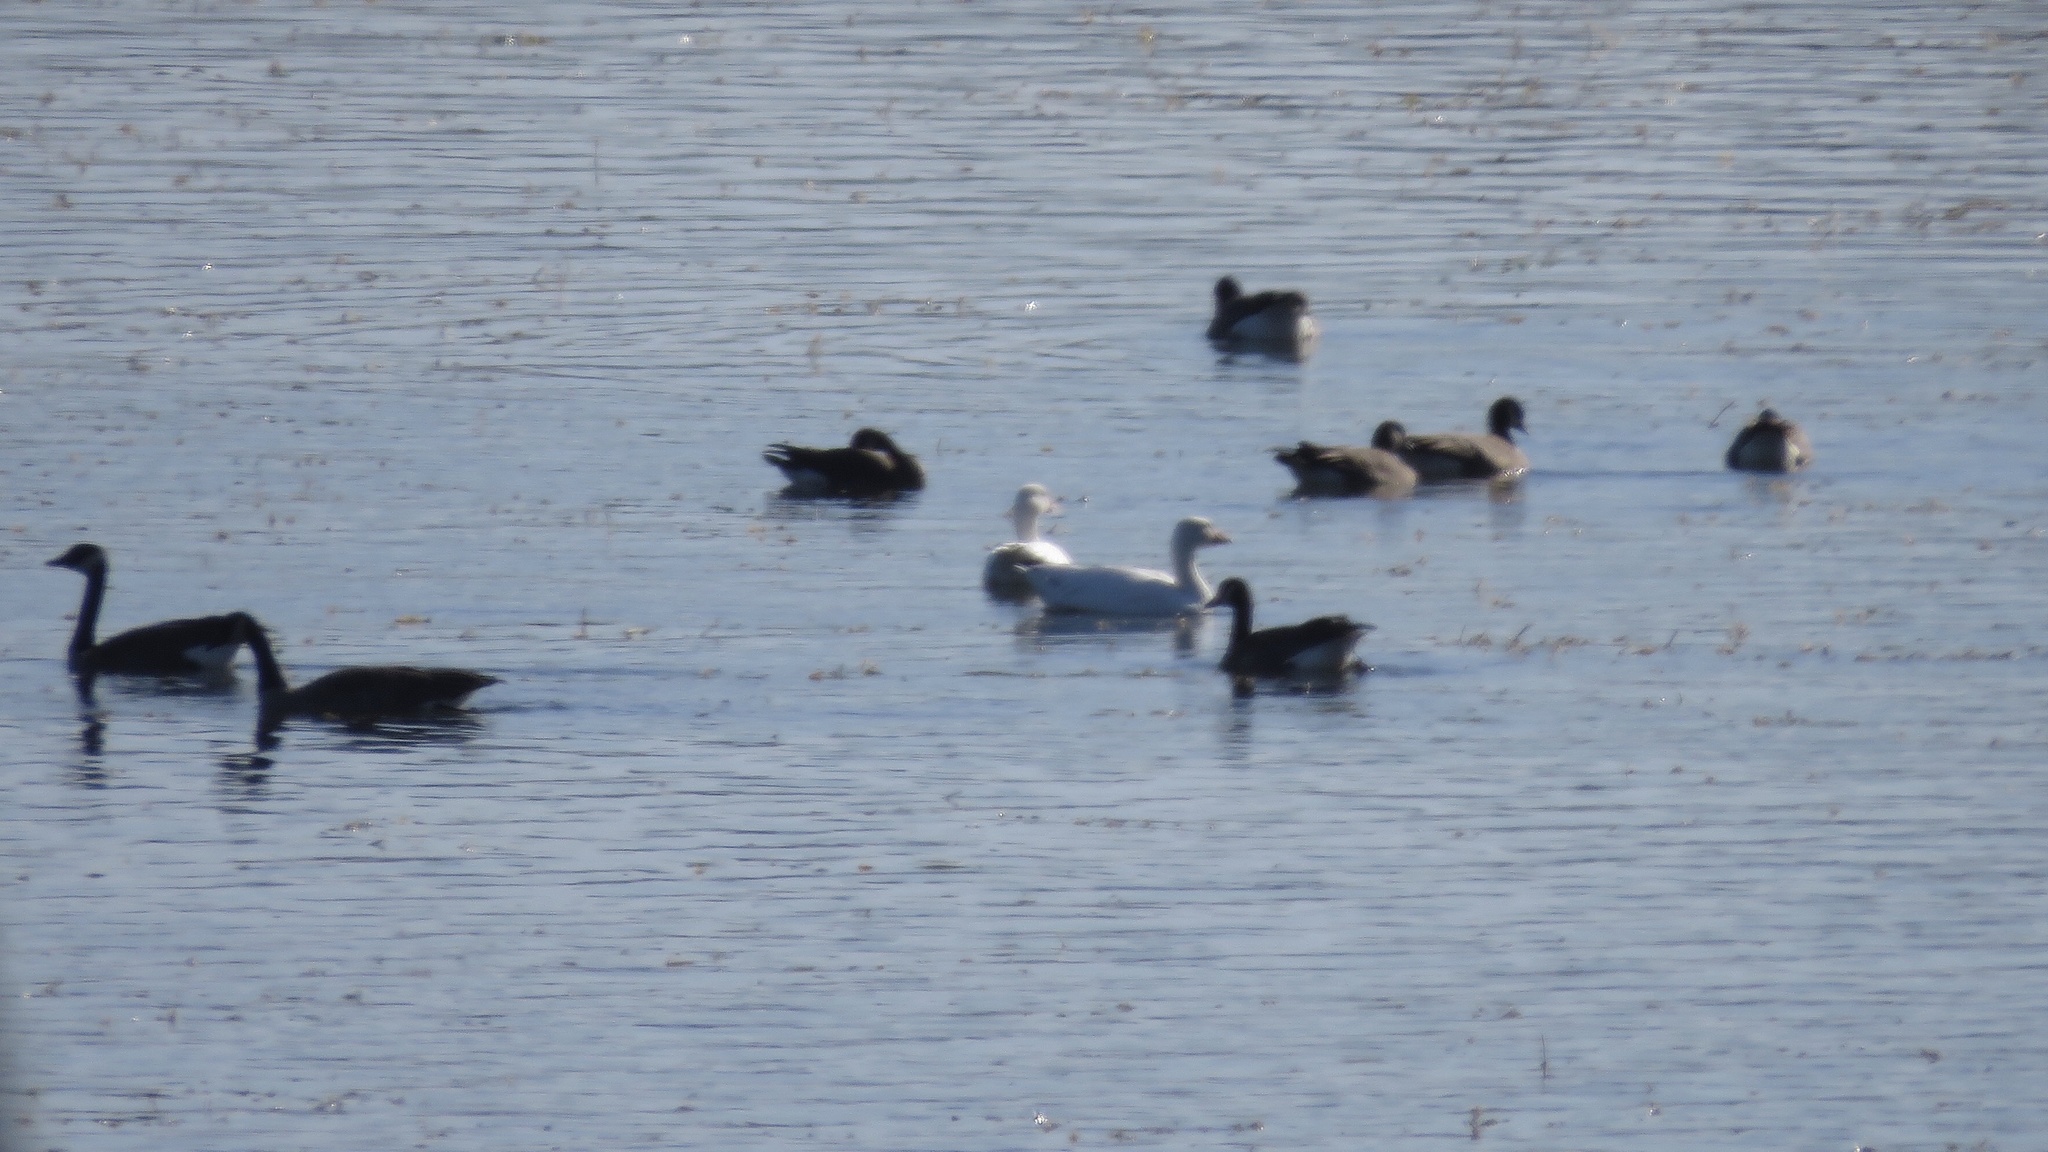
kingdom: Animalia
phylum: Chordata
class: Aves
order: Anseriformes
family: Anatidae
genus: Anser
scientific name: Anser caerulescens
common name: Snow goose
